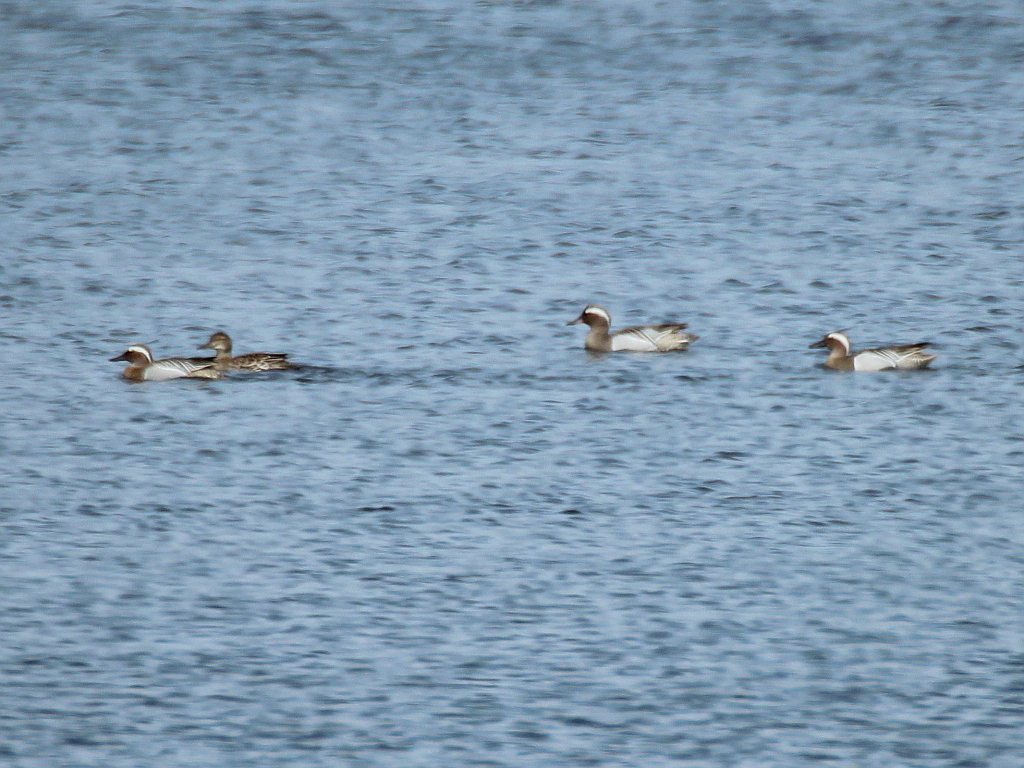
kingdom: Animalia
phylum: Chordata
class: Aves
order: Anseriformes
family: Anatidae
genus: Spatula
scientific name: Spatula querquedula
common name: Garganey
